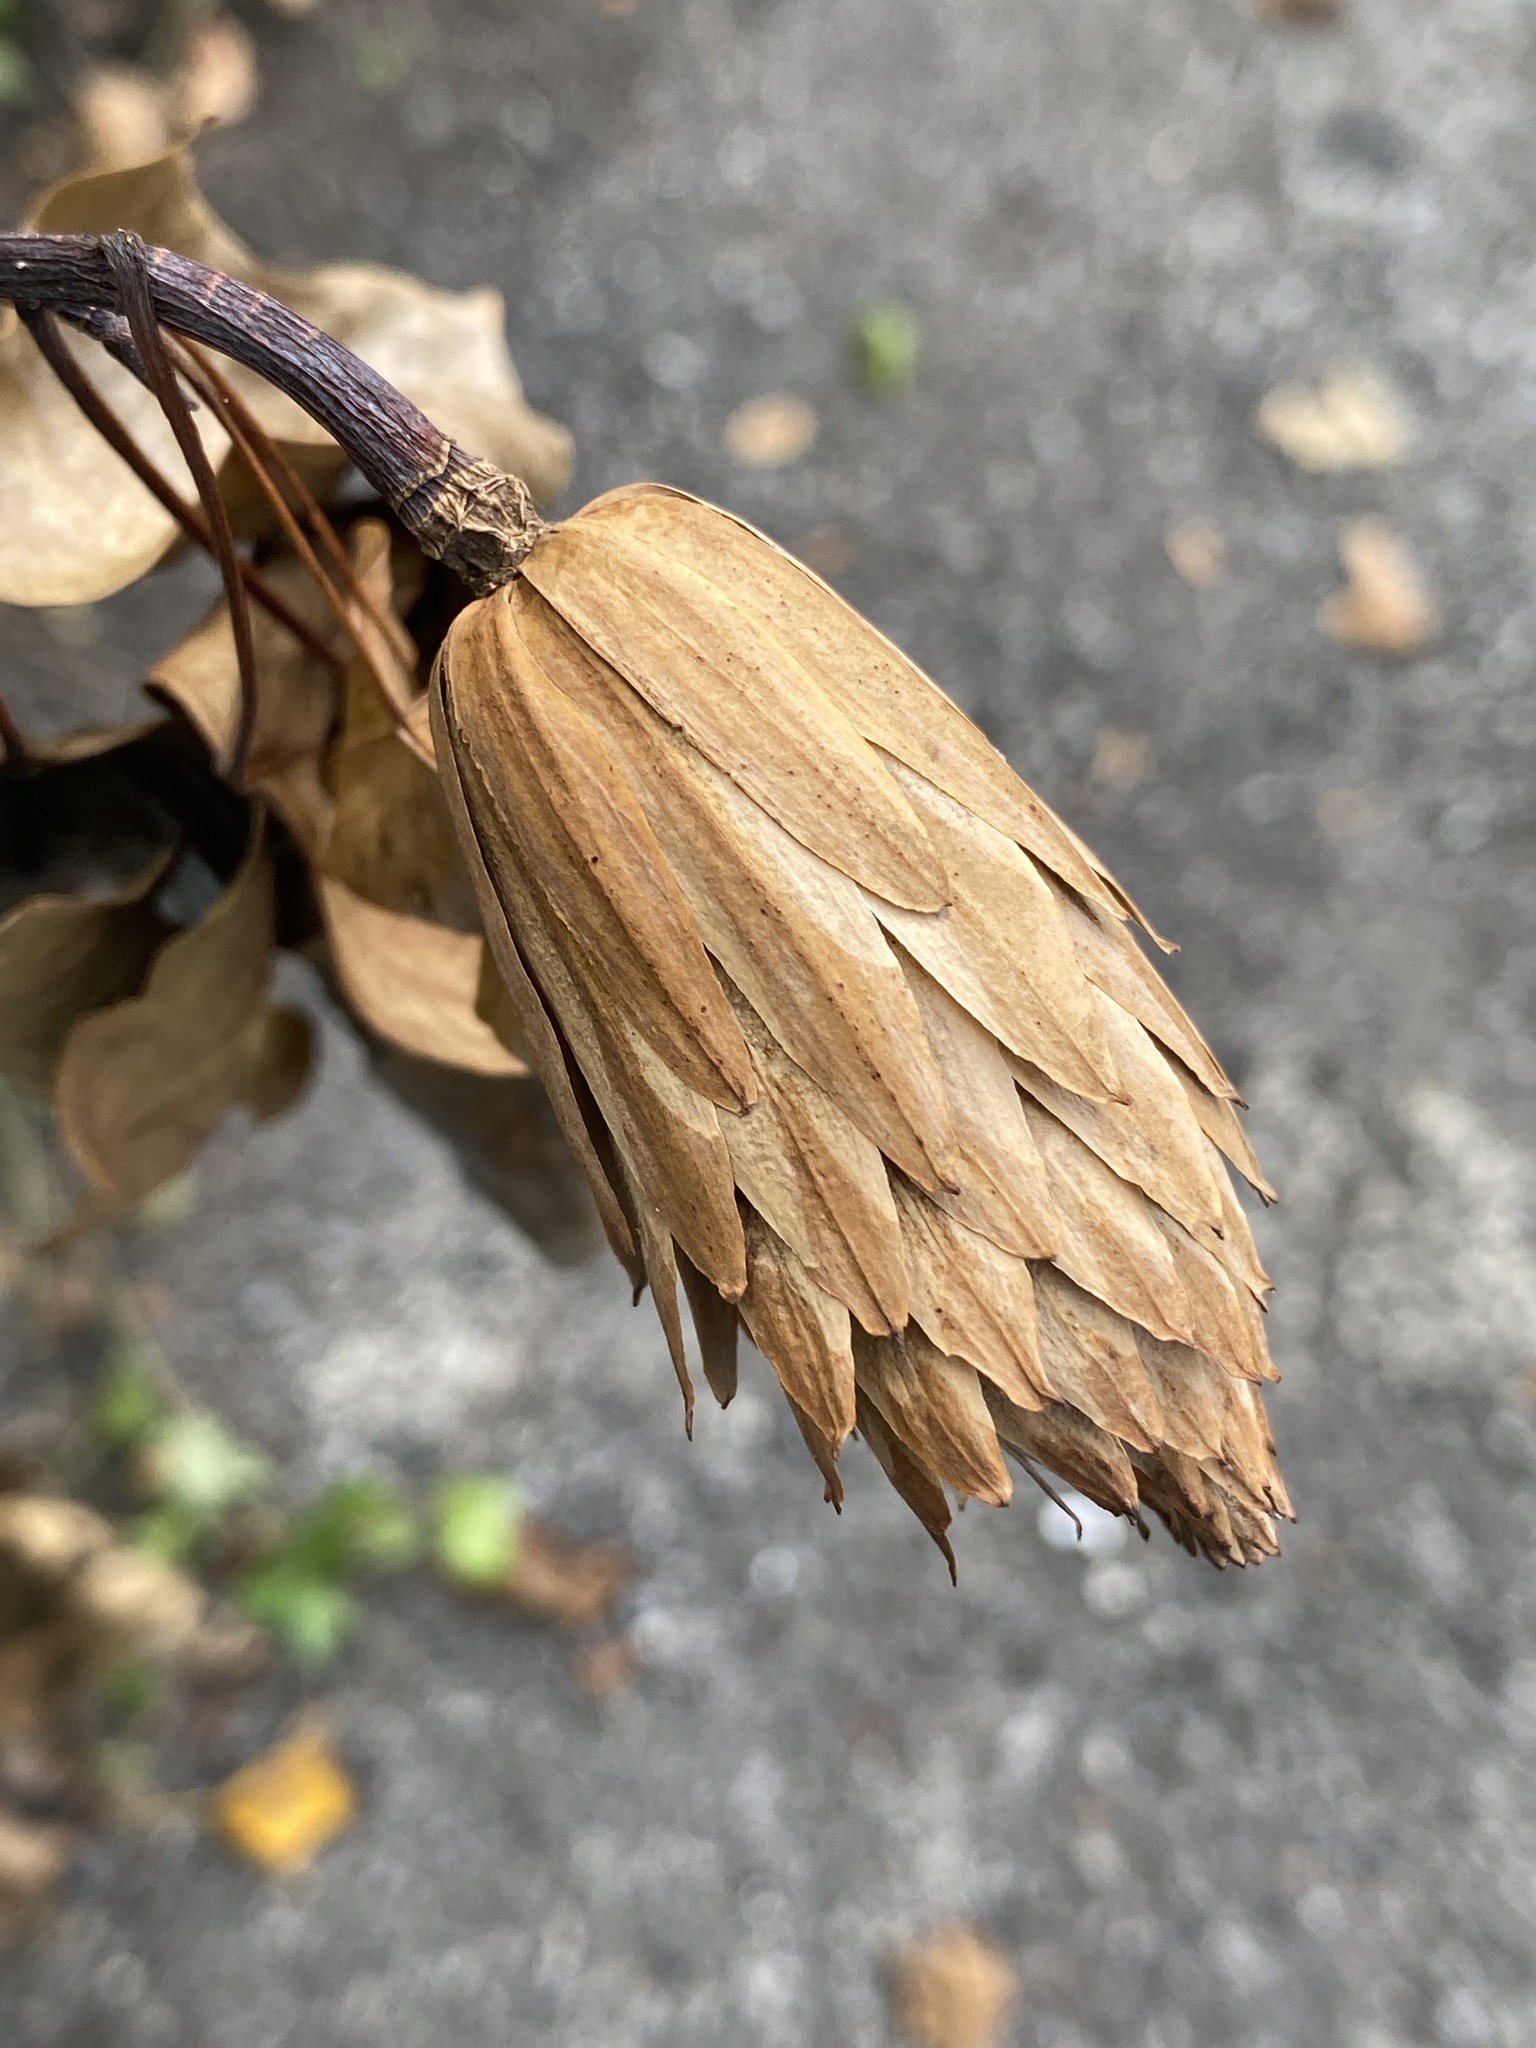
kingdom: Plantae
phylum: Tracheophyta
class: Magnoliopsida
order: Magnoliales
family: Magnoliaceae
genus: Liriodendron
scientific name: Liriodendron tulipifera
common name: Tulip tree
